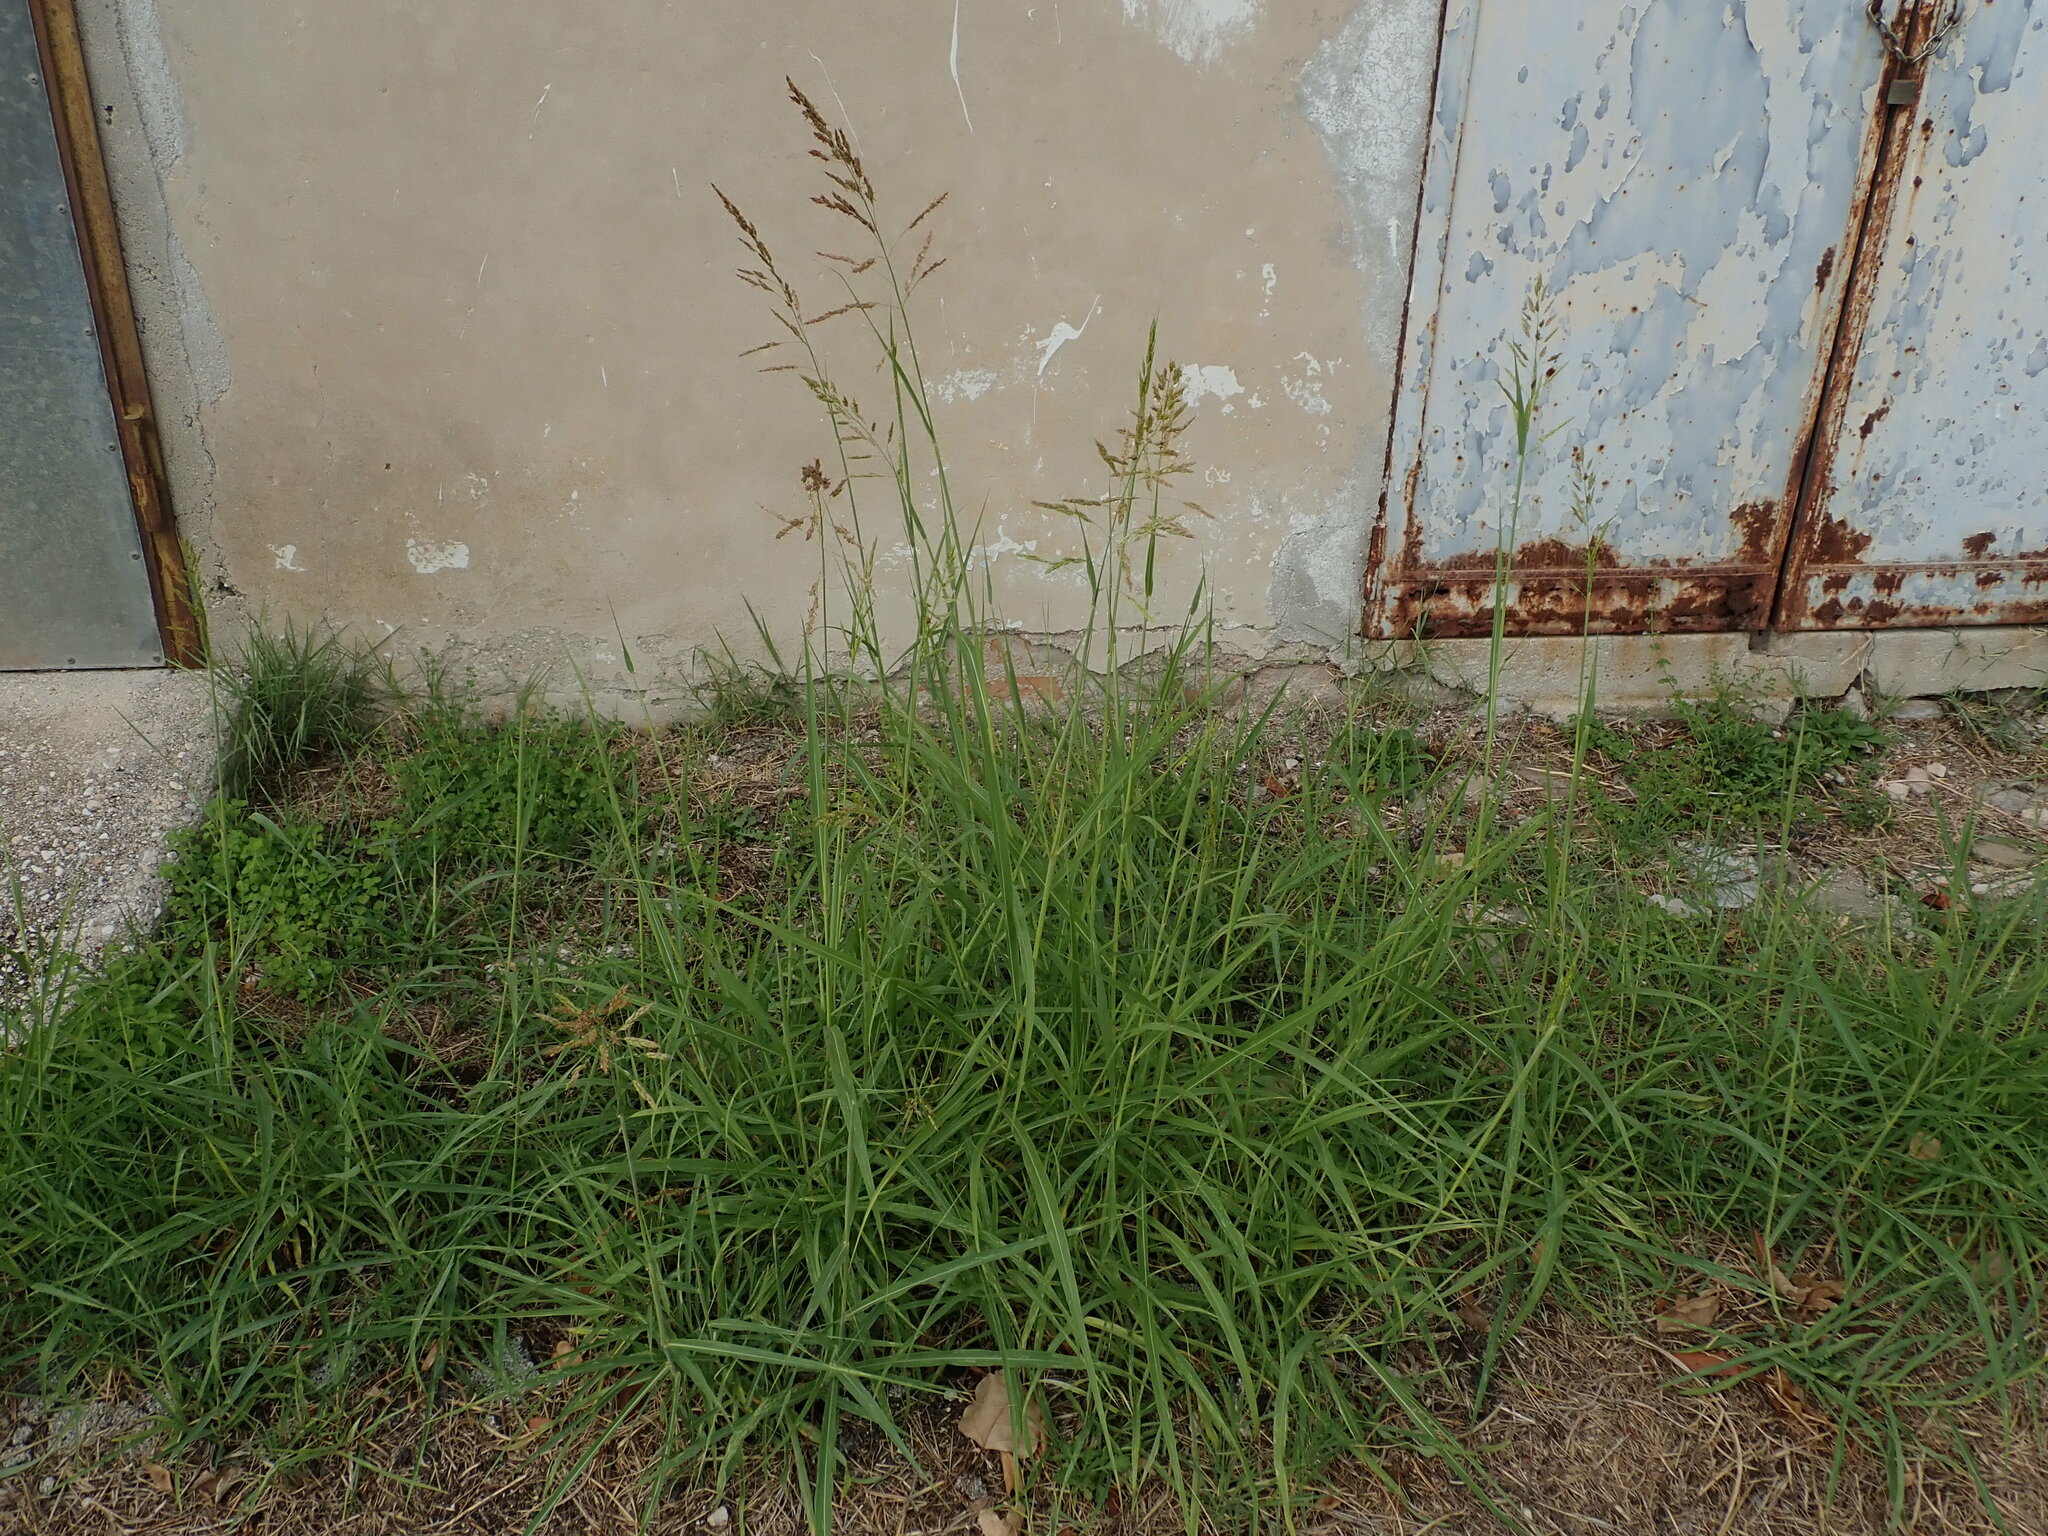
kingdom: Plantae
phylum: Tracheophyta
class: Liliopsida
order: Poales
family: Poaceae
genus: Sorghum
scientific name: Sorghum halepense
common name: Johnson-grass
